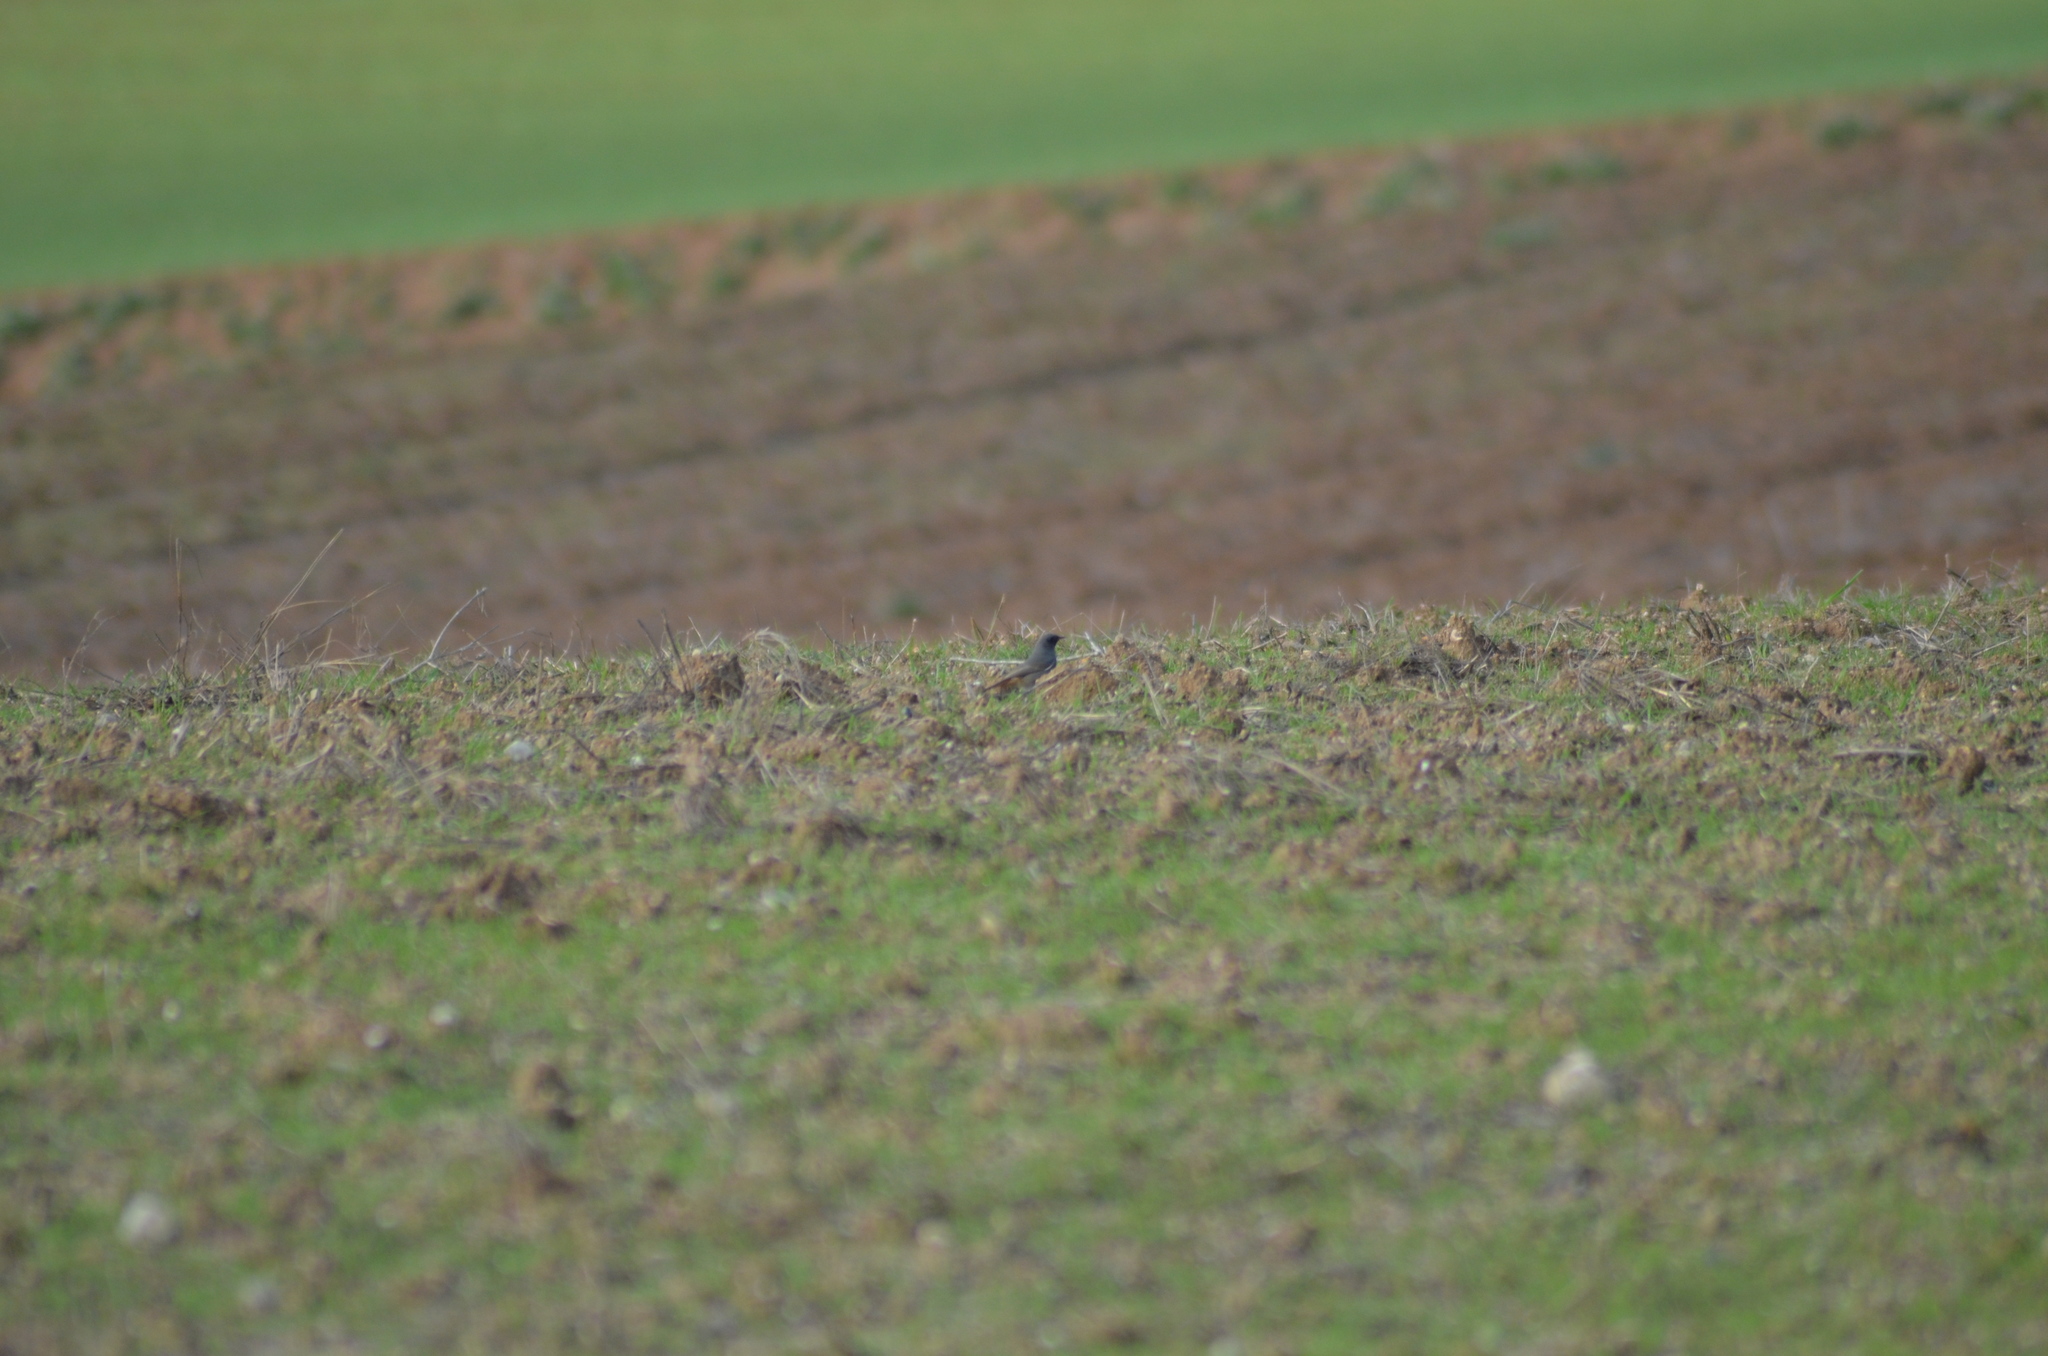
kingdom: Animalia
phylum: Chordata
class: Aves
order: Passeriformes
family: Muscicapidae
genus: Phoenicurus
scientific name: Phoenicurus ochruros
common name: Black redstart
